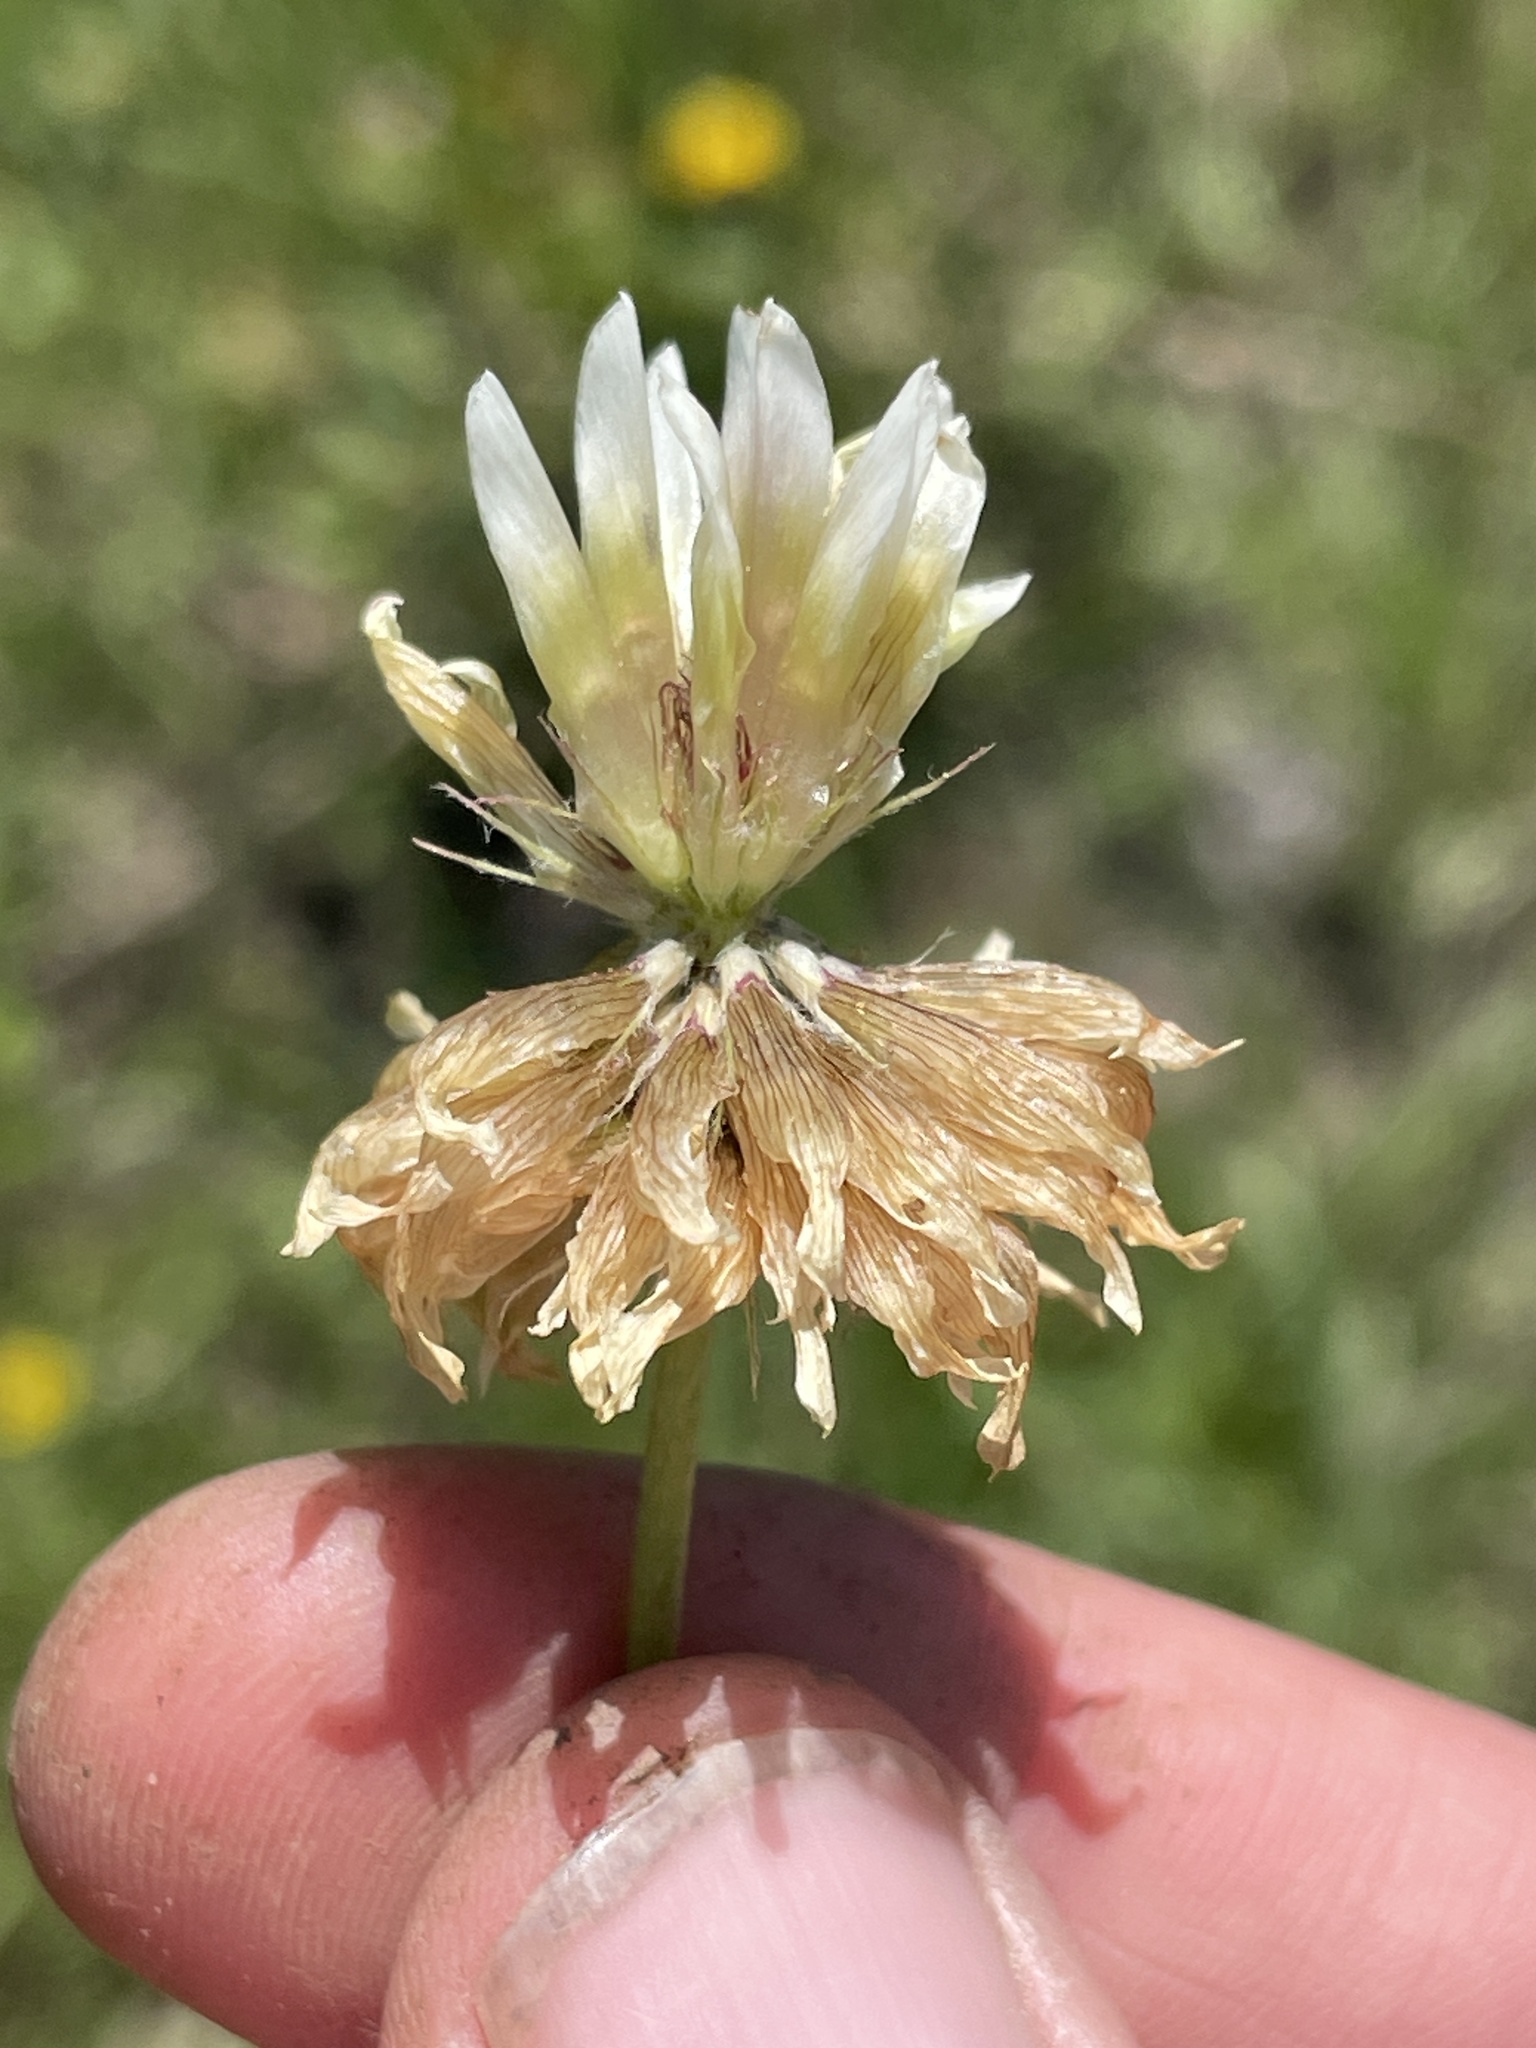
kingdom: Plantae
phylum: Tracheophyta
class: Magnoliopsida
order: Fabales
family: Fabaceae
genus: Trifolium
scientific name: Trifolium longipes
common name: Long-stalk clover
